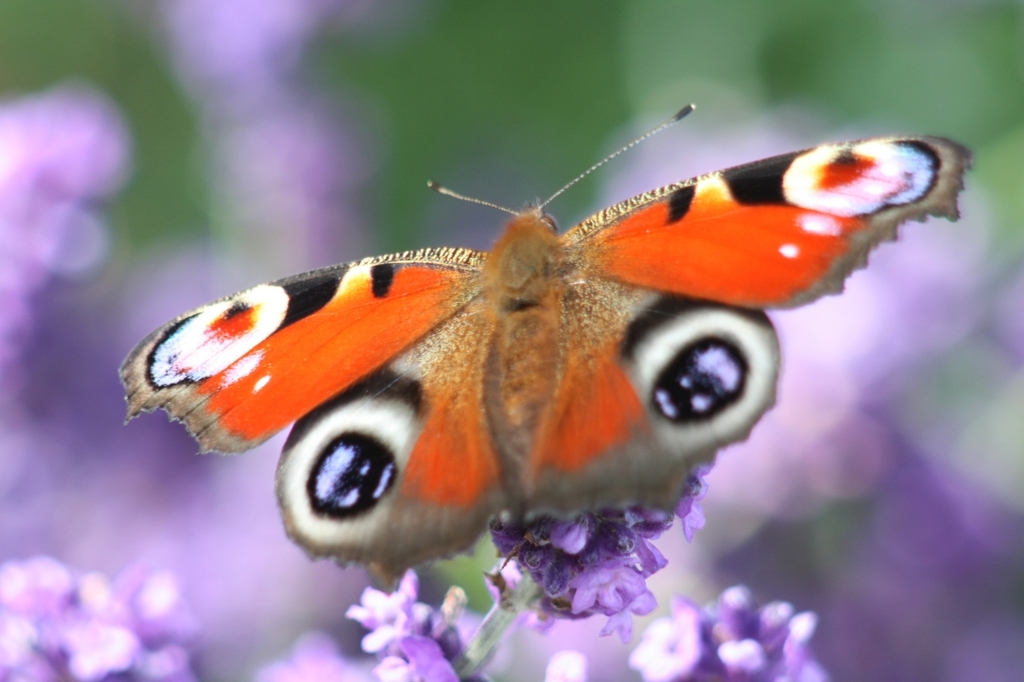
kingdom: Animalia
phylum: Arthropoda
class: Insecta
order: Lepidoptera
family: Nymphalidae
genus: Aglais
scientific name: Aglais io
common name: Peacock
